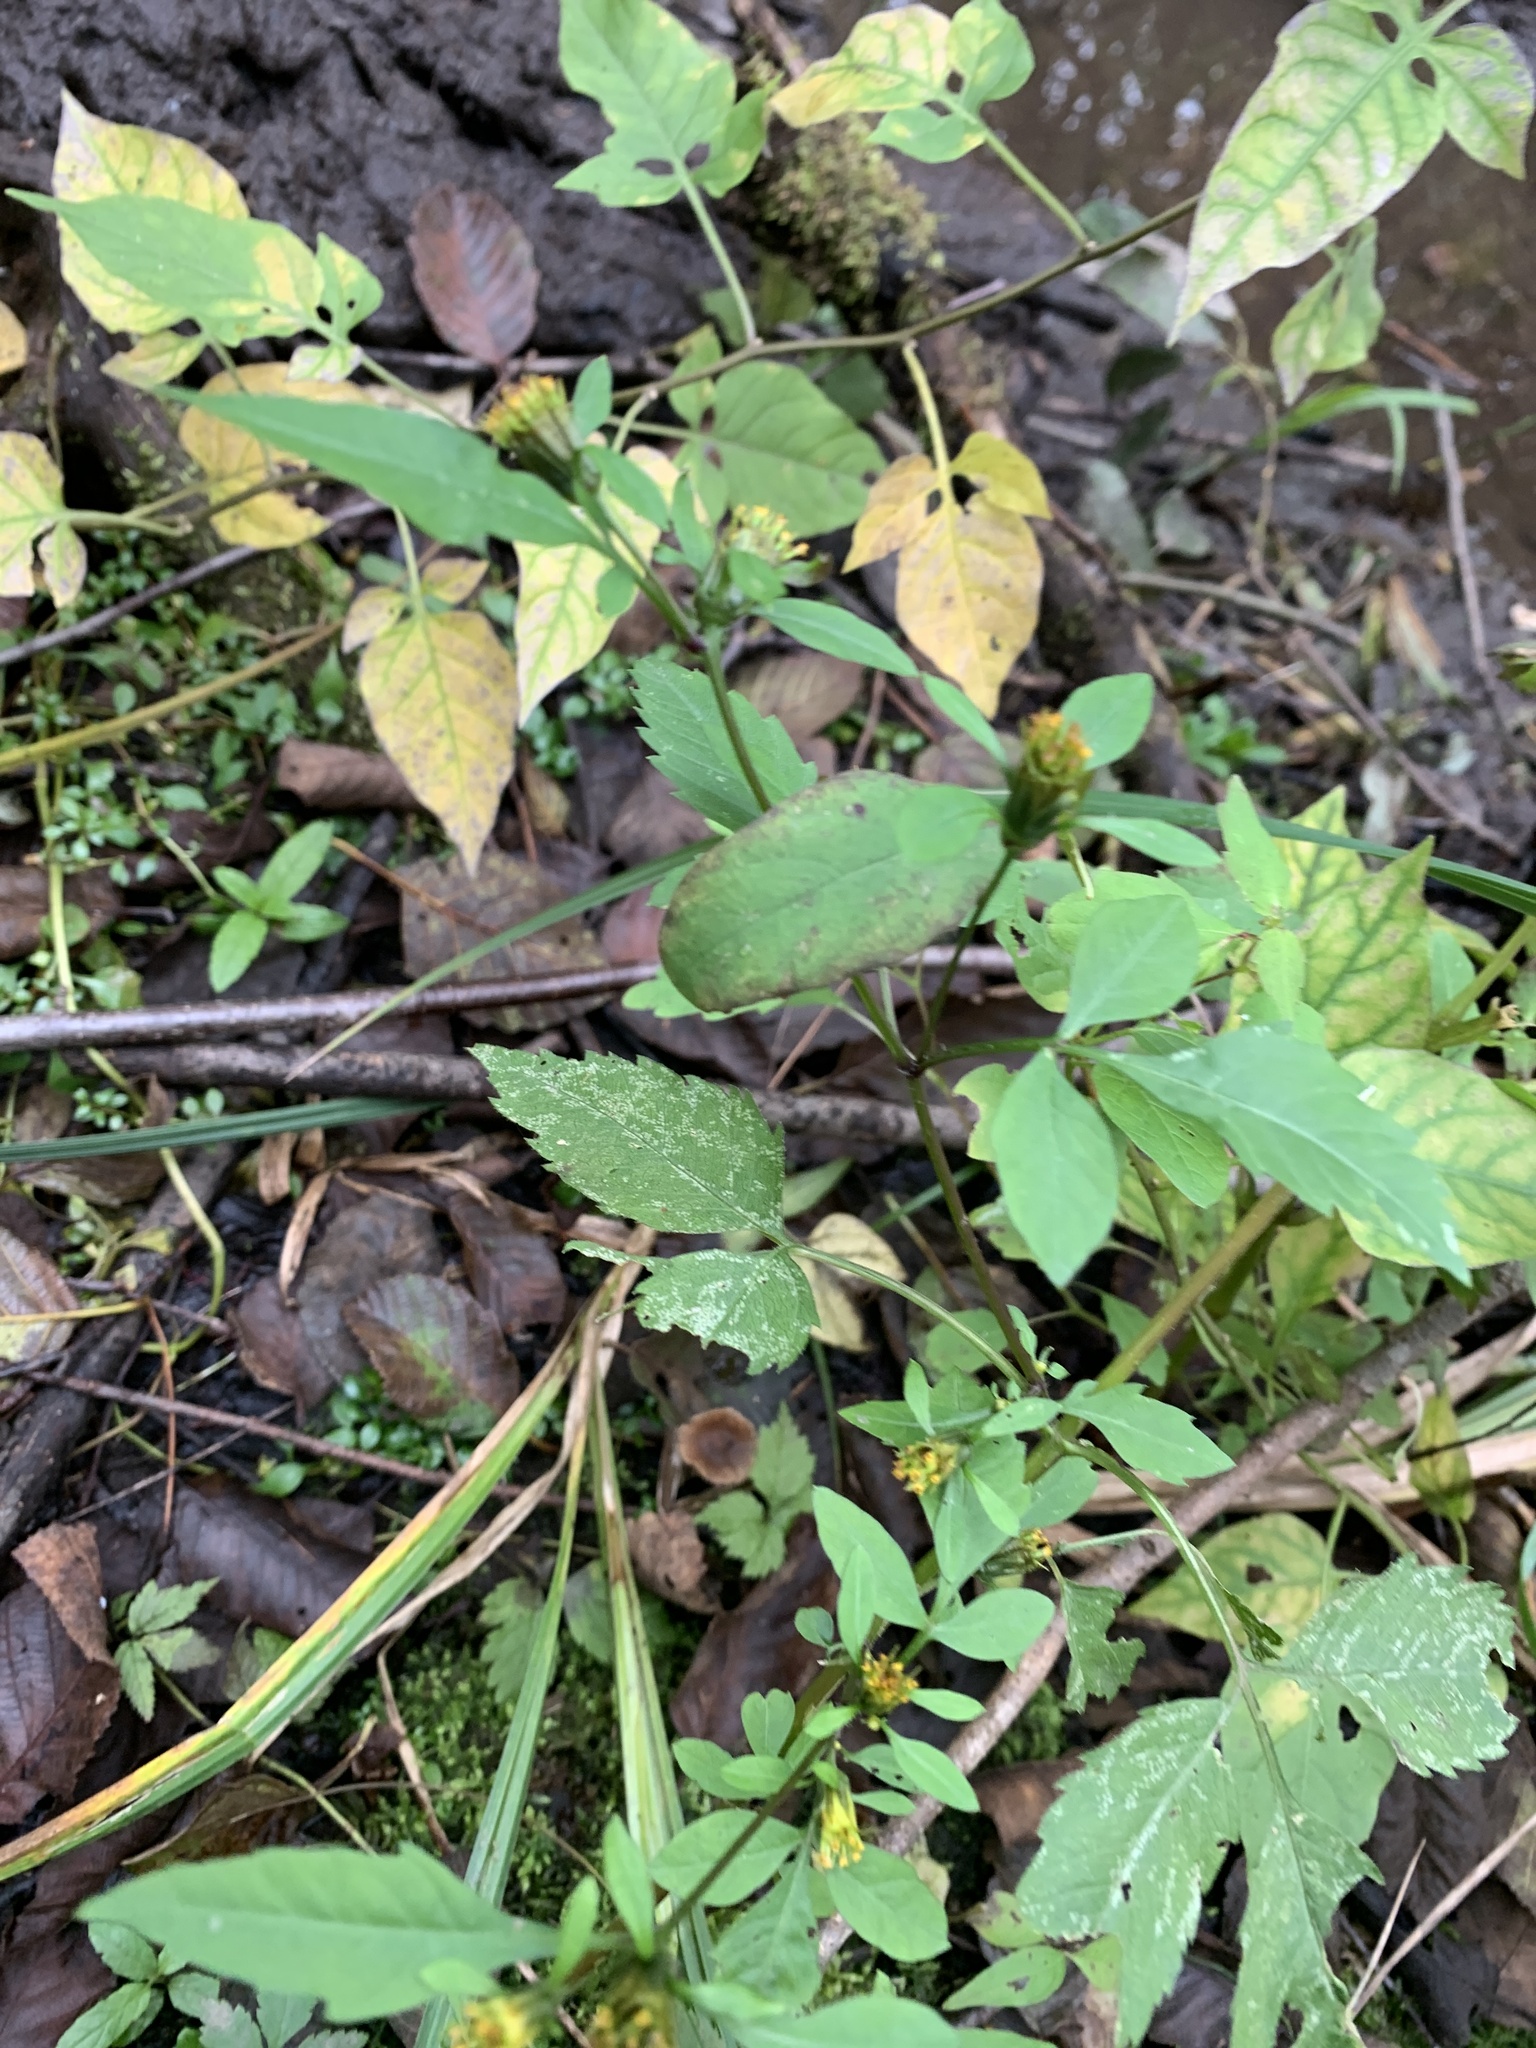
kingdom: Plantae
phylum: Tracheophyta
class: Magnoliopsida
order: Asterales
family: Asteraceae
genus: Bidens
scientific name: Bidens frondosa
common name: Beggarticks
